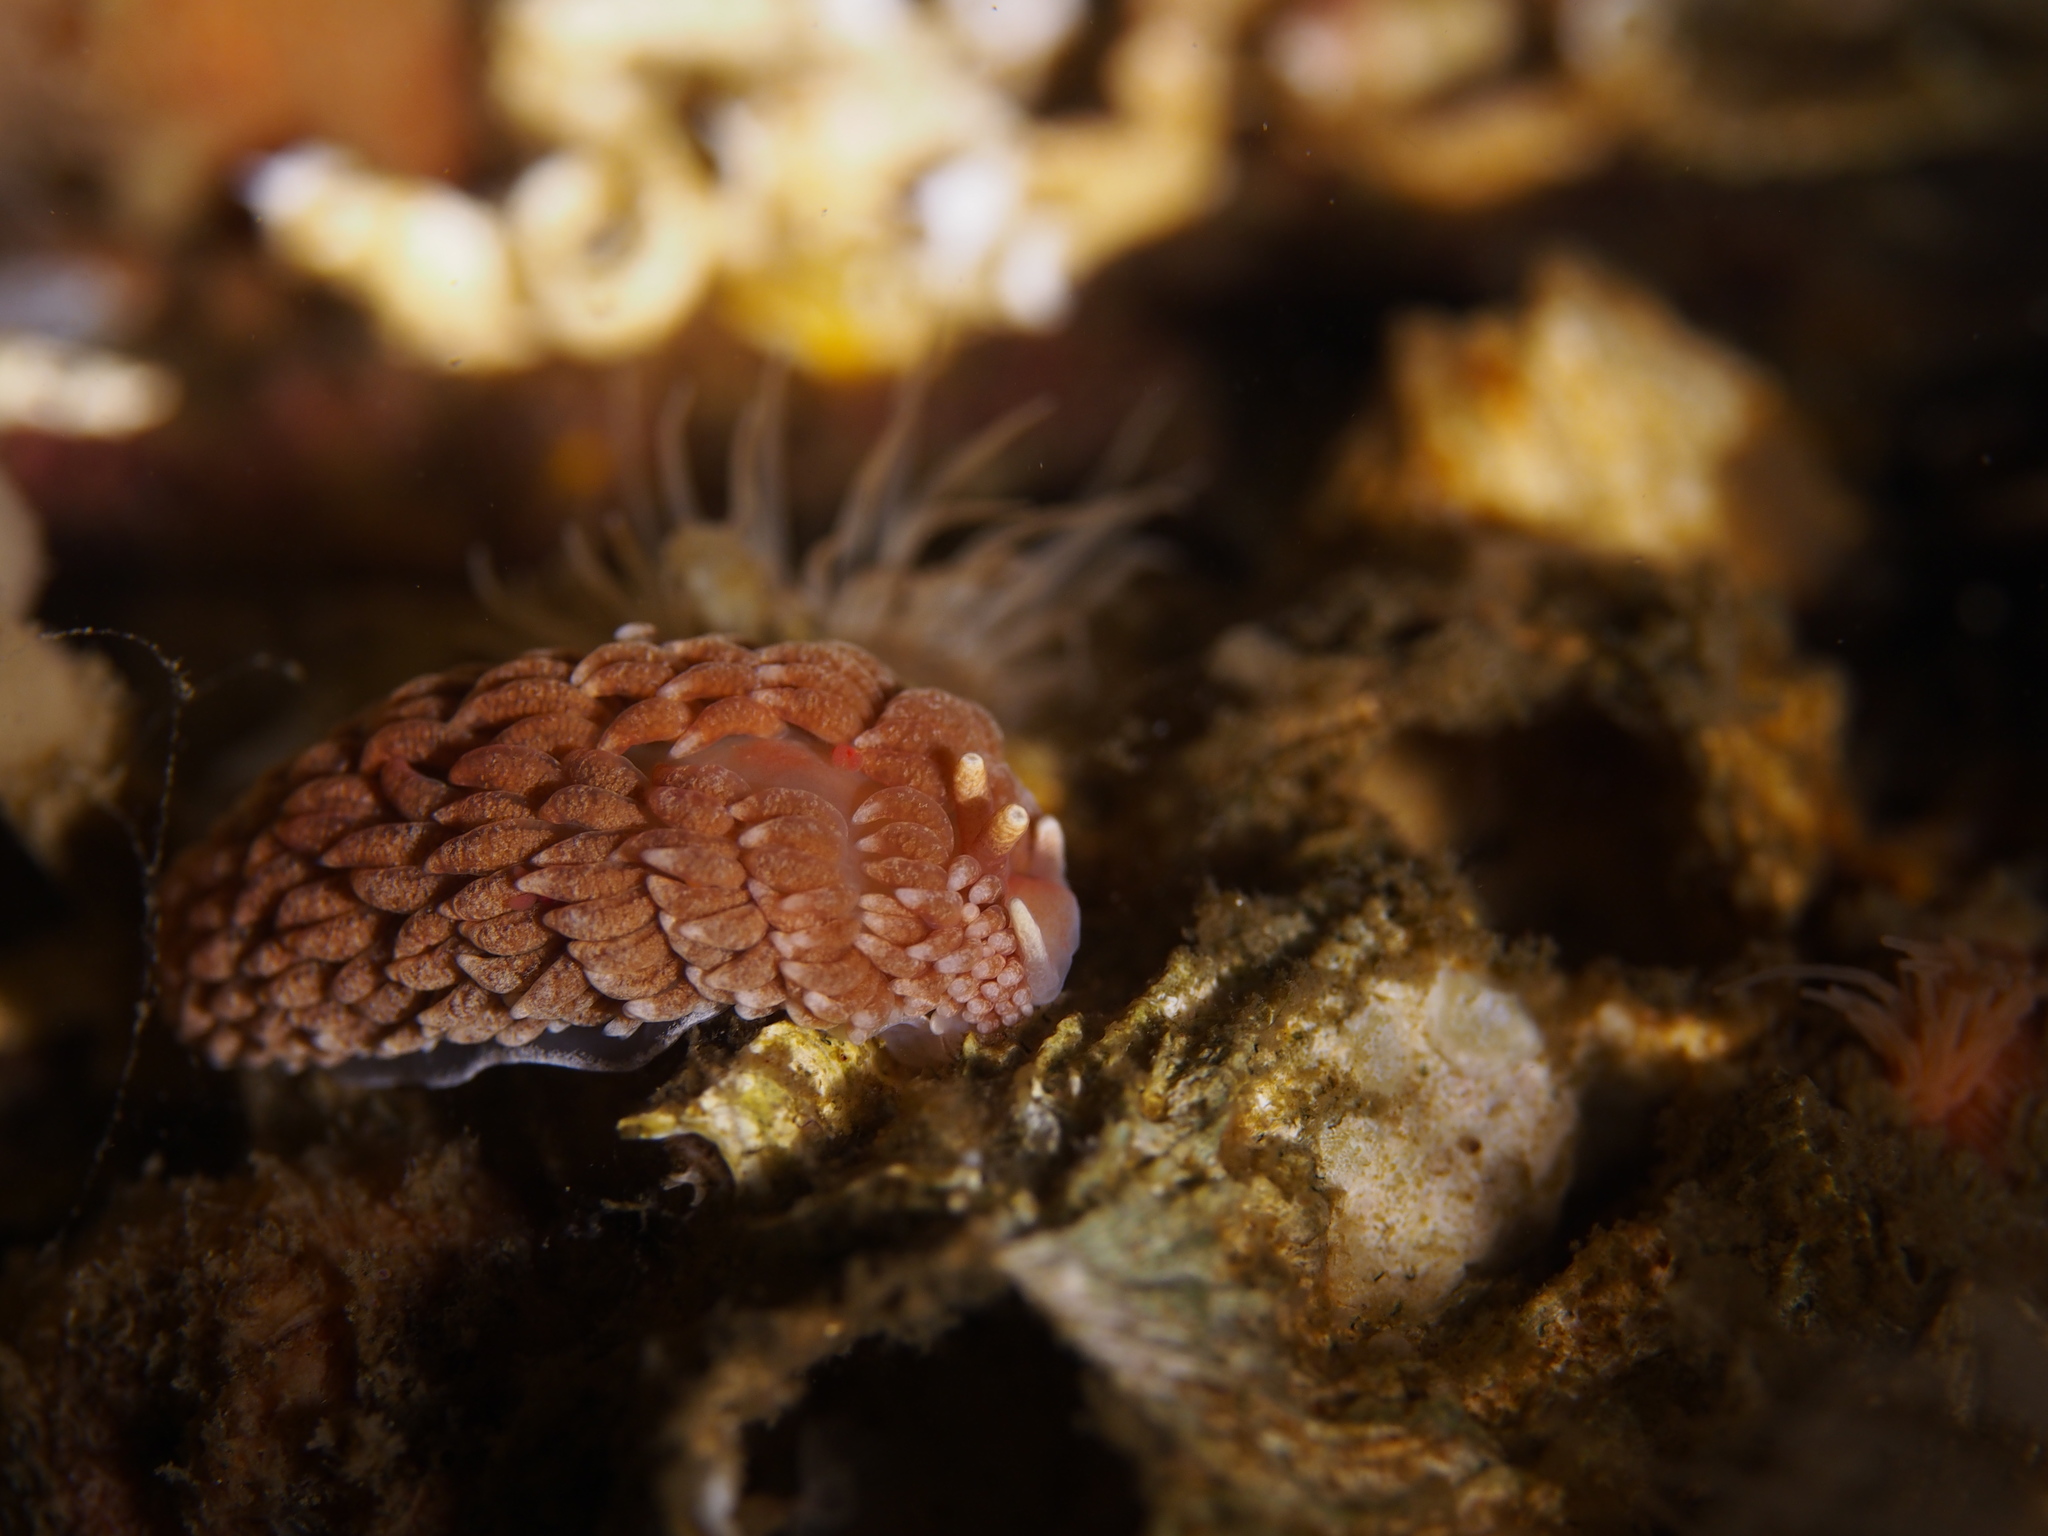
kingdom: Animalia
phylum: Mollusca
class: Gastropoda
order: Nudibranchia
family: Aeolidiidae
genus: Aeolidiella
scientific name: Aeolidiella glauca
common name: Orange-brown aeolid
